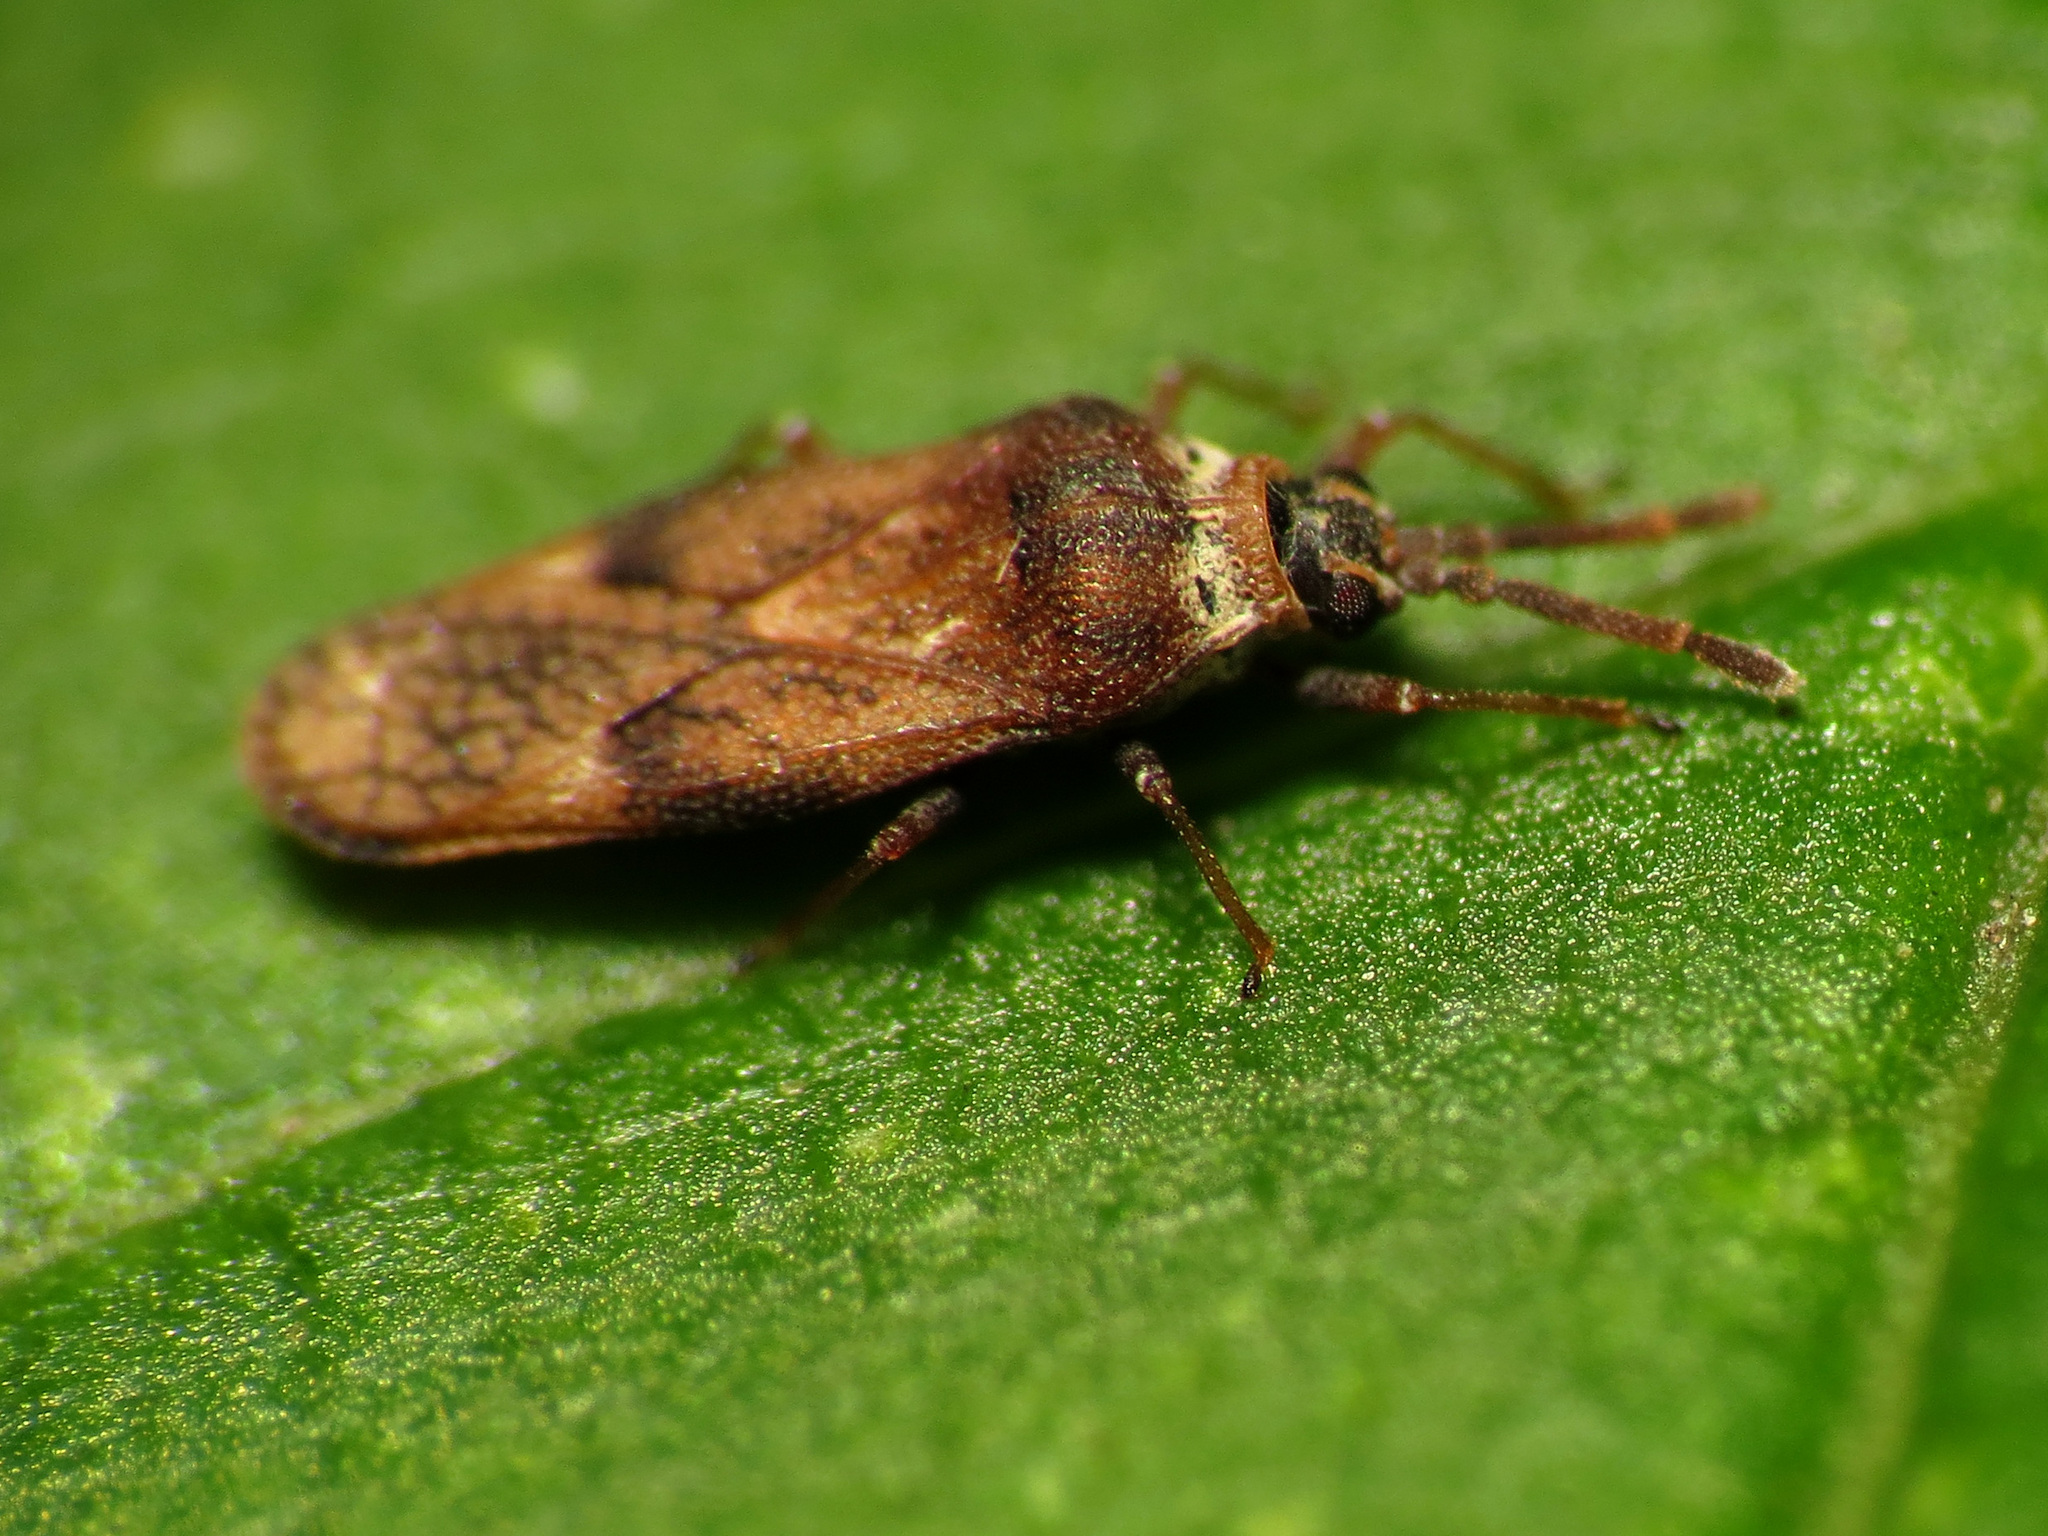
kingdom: Animalia
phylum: Arthropoda
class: Insecta
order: Hemiptera
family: Tingidae
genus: Leptoypha
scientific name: Leptoypha mutica
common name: Fringetree lace bug
